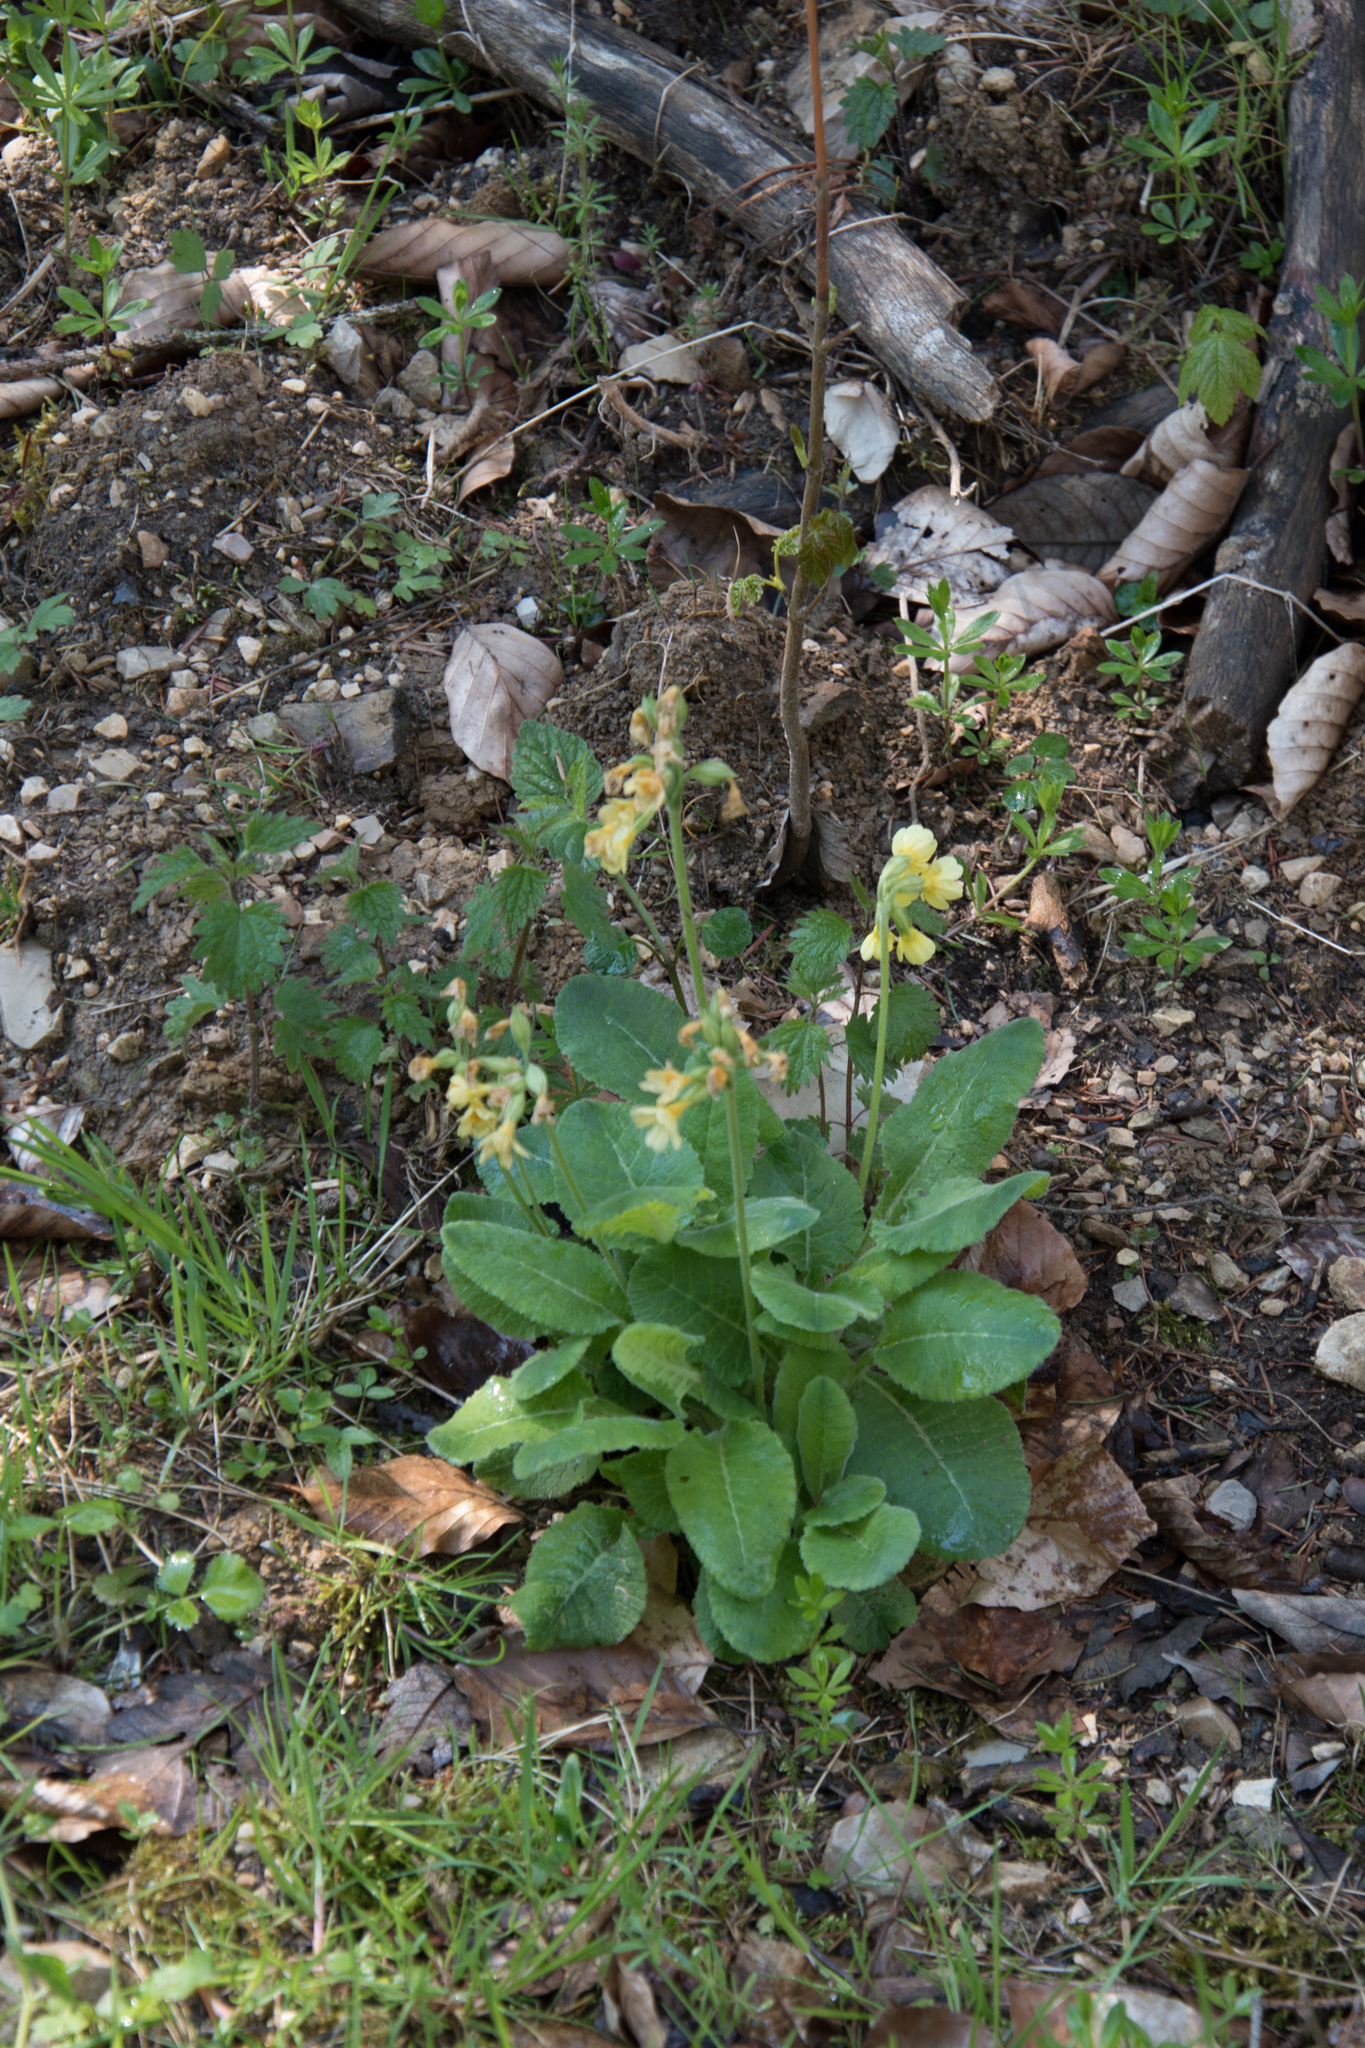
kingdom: Plantae
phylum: Tracheophyta
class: Magnoliopsida
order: Ericales
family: Primulaceae
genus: Primula
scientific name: Primula elatior
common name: Oxlip
